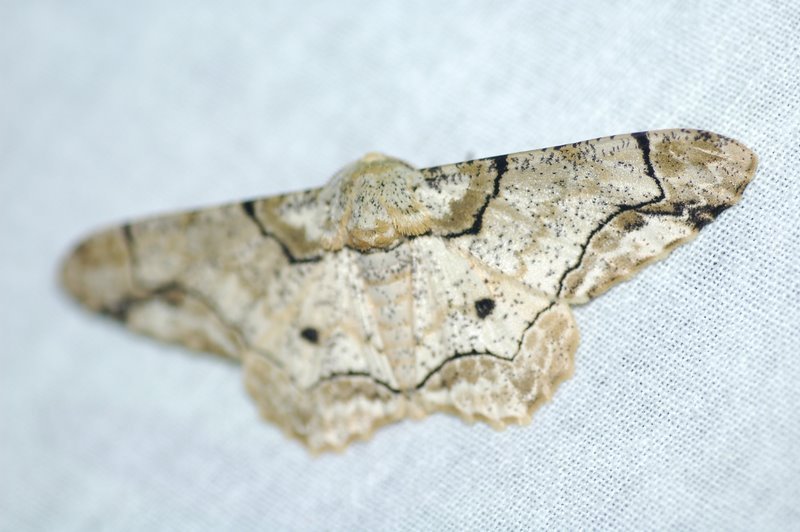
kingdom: Animalia
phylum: Arthropoda
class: Insecta
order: Lepidoptera
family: Geometridae
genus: Biston
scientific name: Biston bengaliaria
